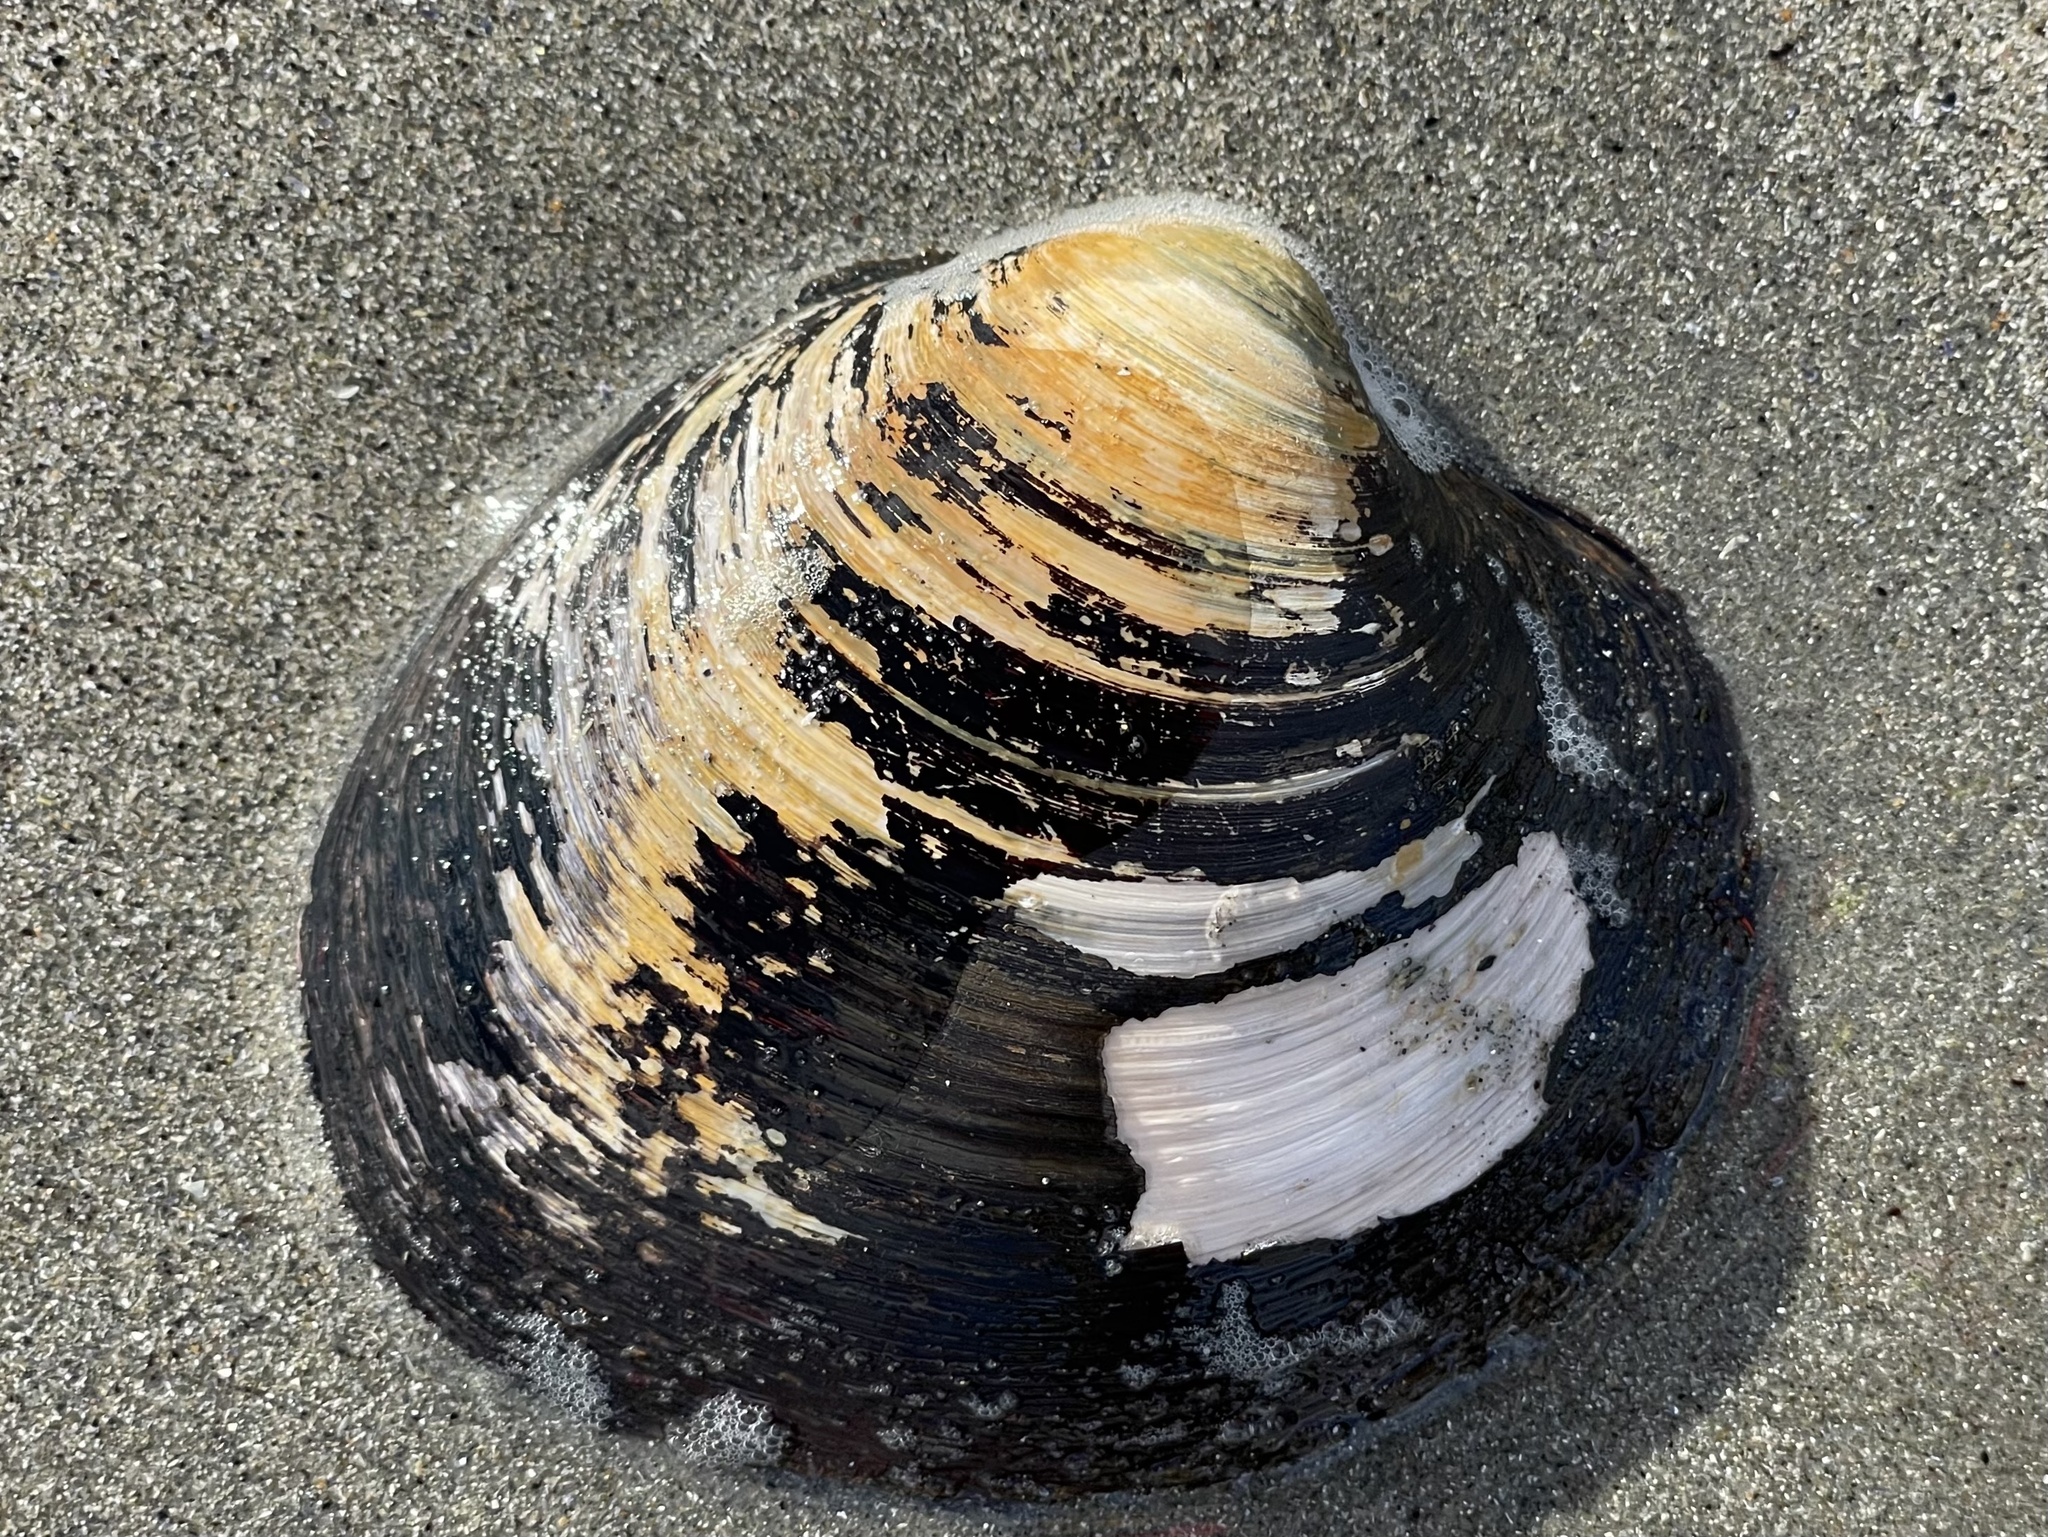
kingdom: Animalia
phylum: Mollusca
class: Bivalvia
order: Venerida
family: Arcticidae
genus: Arctica
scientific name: Arctica islandica
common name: Icelandic cyprine
